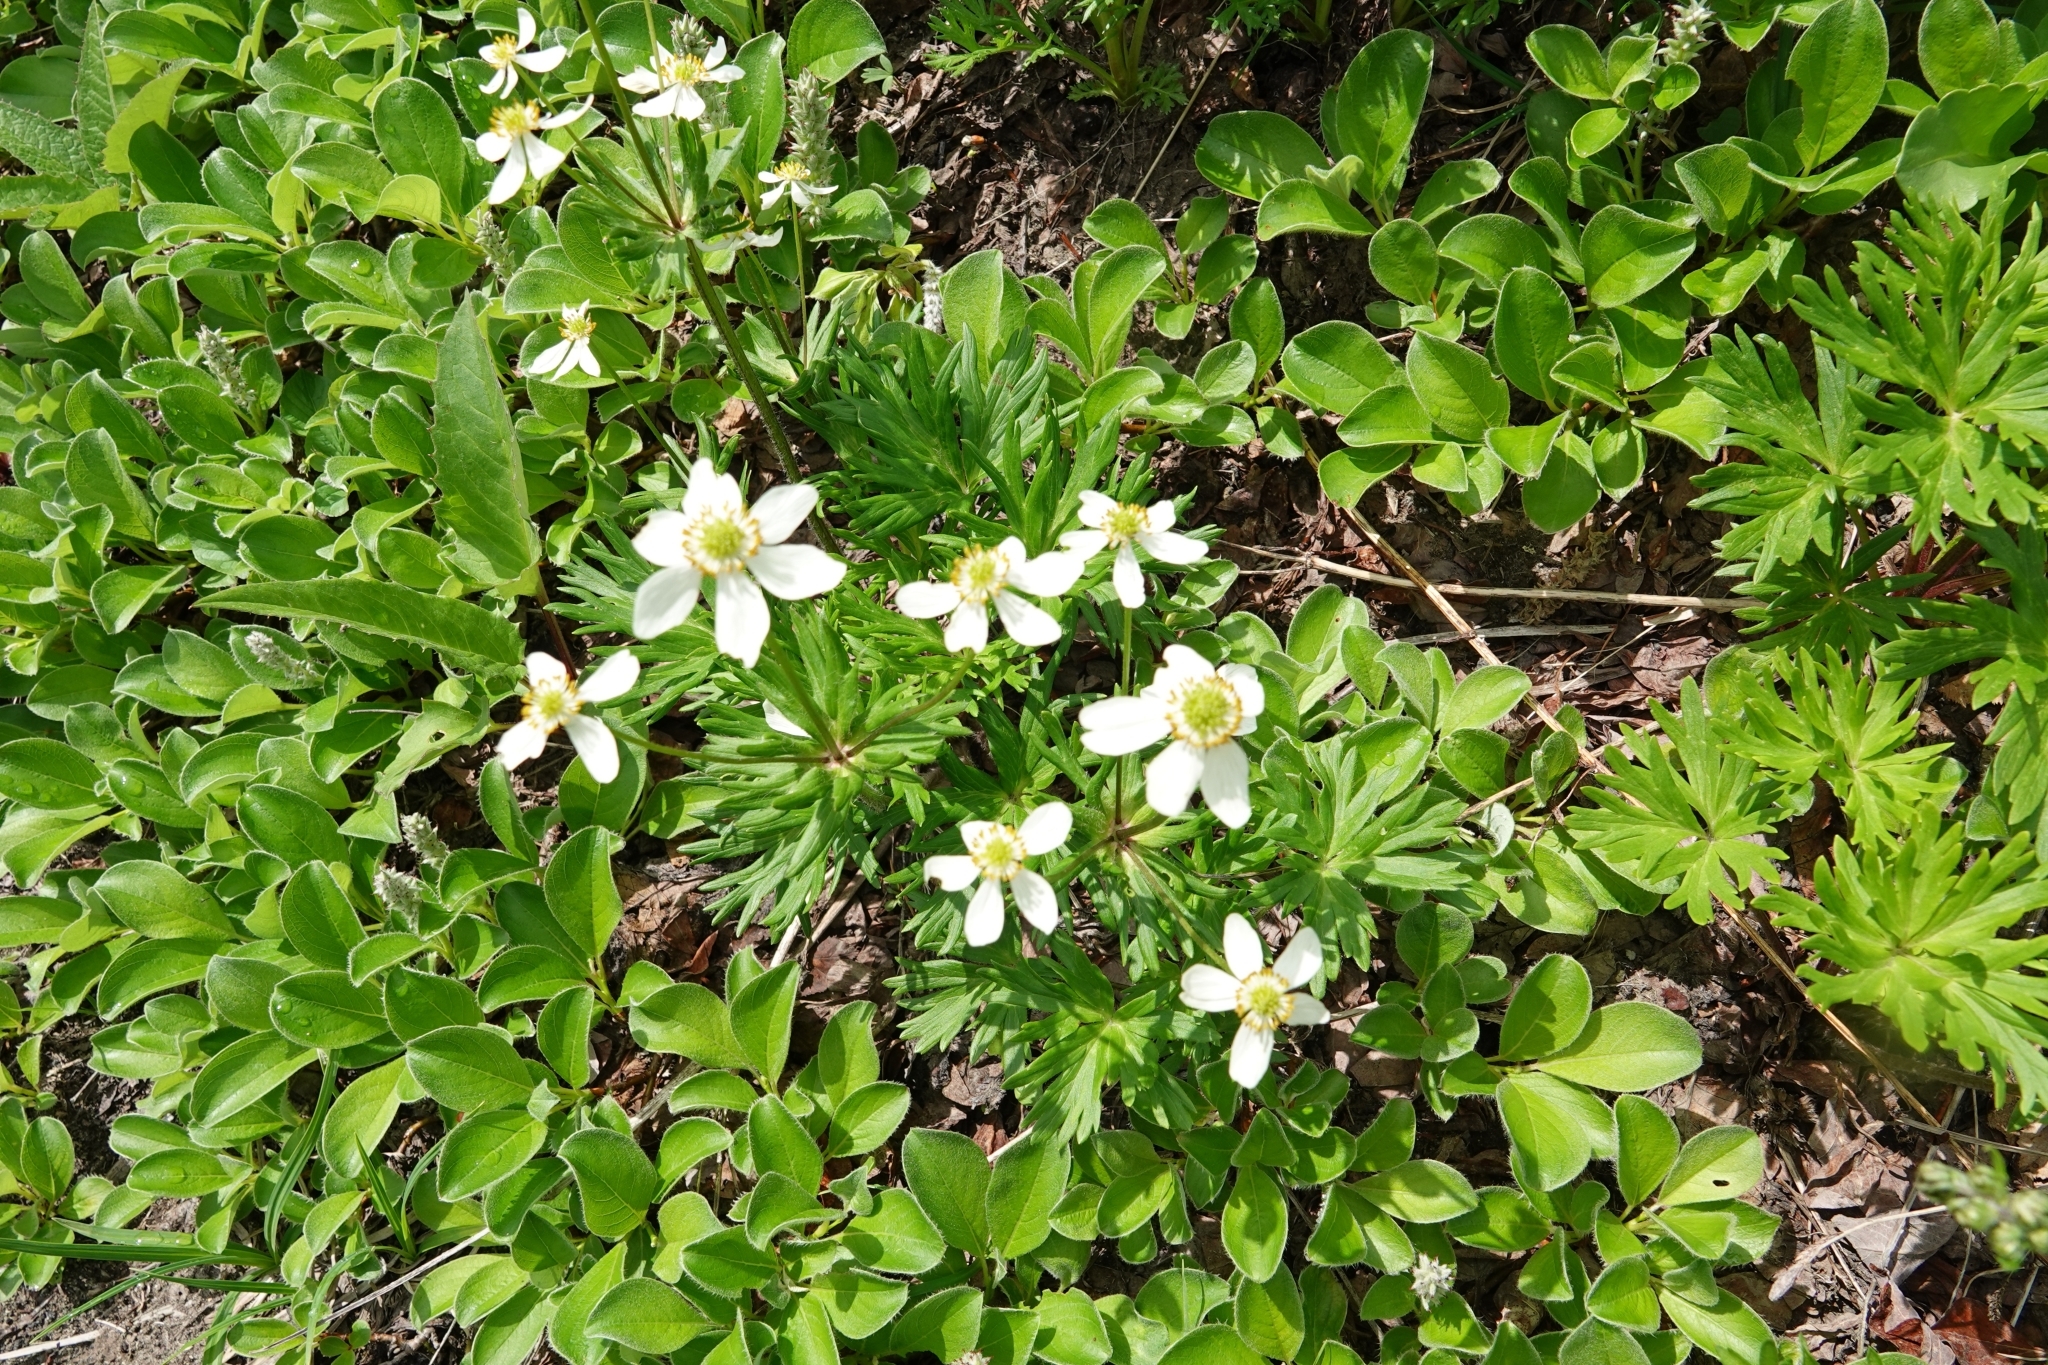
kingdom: Plantae
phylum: Tracheophyta
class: Magnoliopsida
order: Ranunculales
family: Ranunculaceae
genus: Anemonastrum
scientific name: Anemonastrum narcissiflorum
